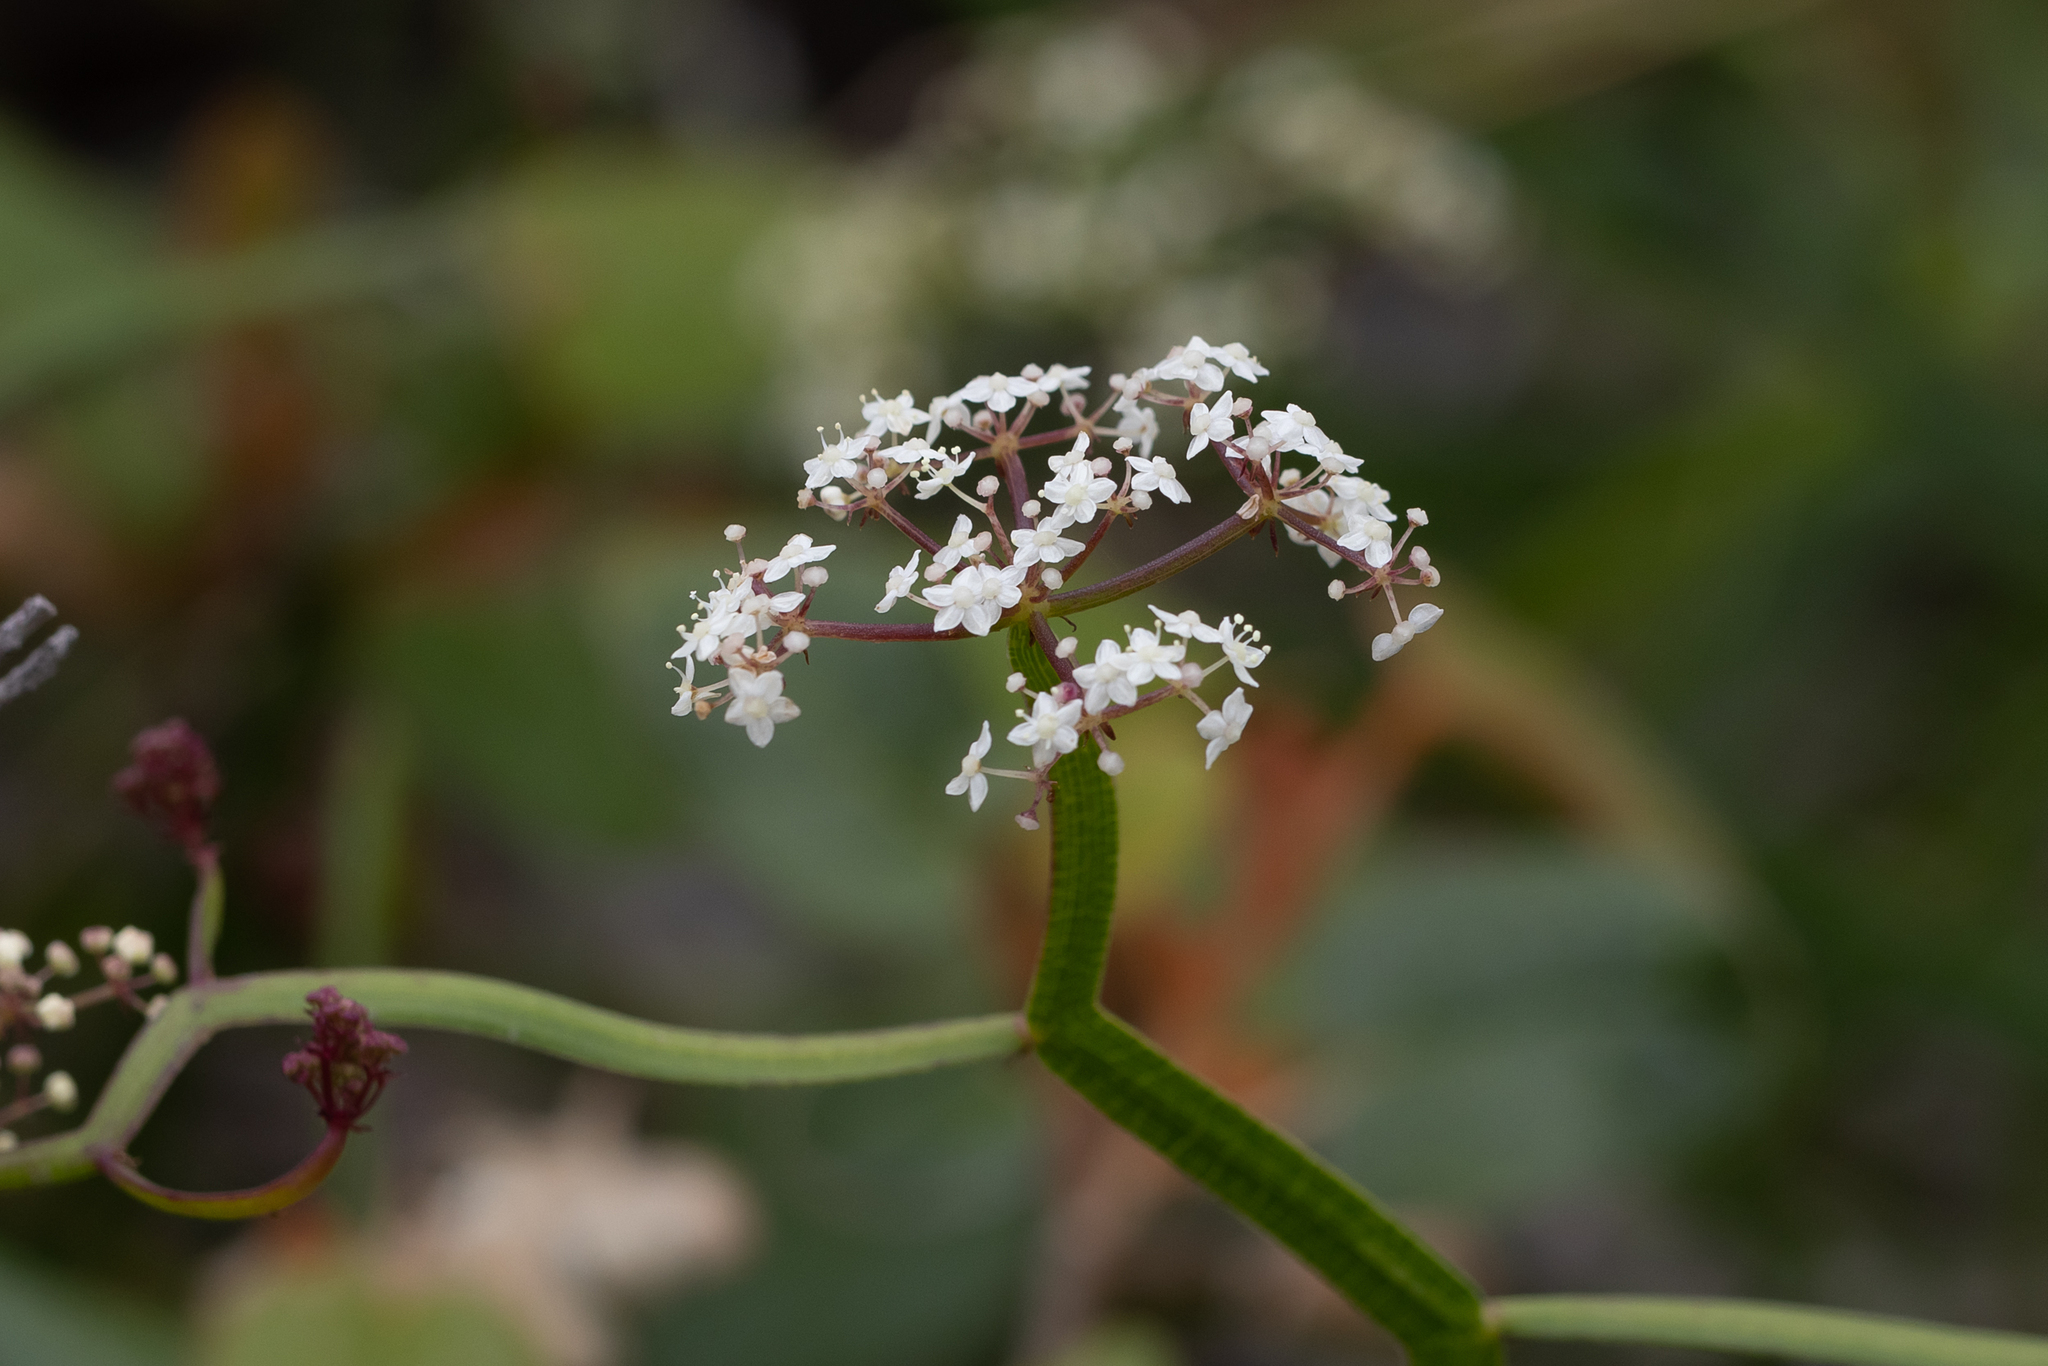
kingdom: Plantae
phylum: Tracheophyta
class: Magnoliopsida
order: Apiales
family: Apiaceae
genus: Platysace
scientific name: Platysace compressa
